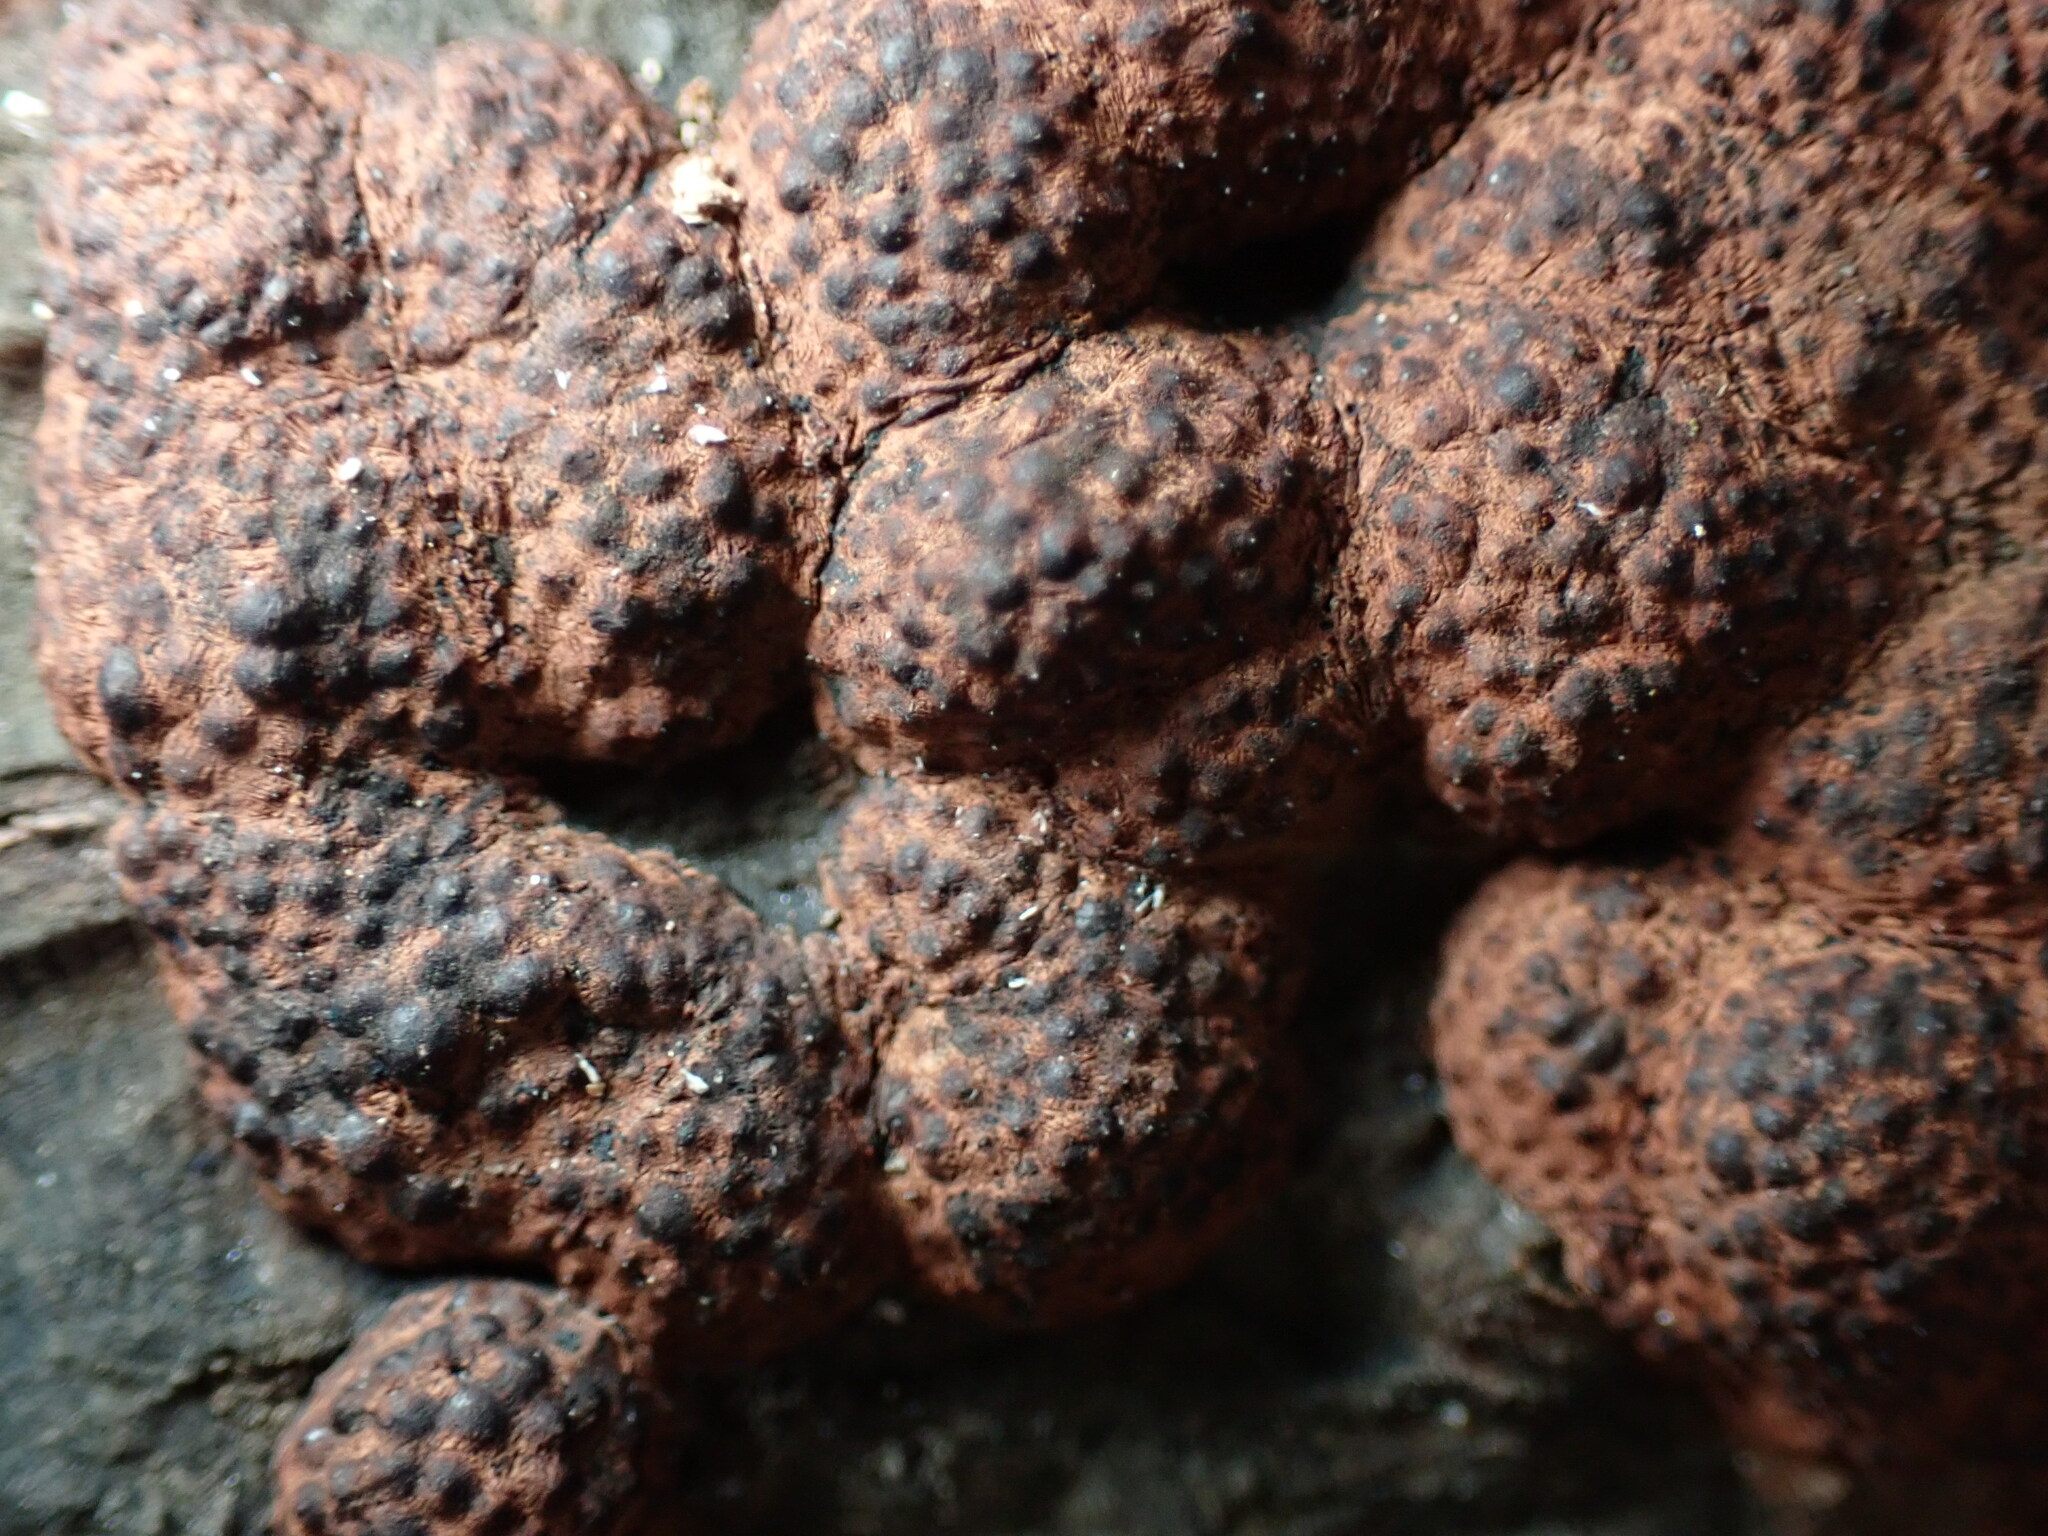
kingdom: Fungi
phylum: Ascomycota
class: Sordariomycetes
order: Xylariales
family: Hypoxylaceae
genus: Hypoxylon
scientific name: Hypoxylon fragiforme
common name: Beech woodwart
